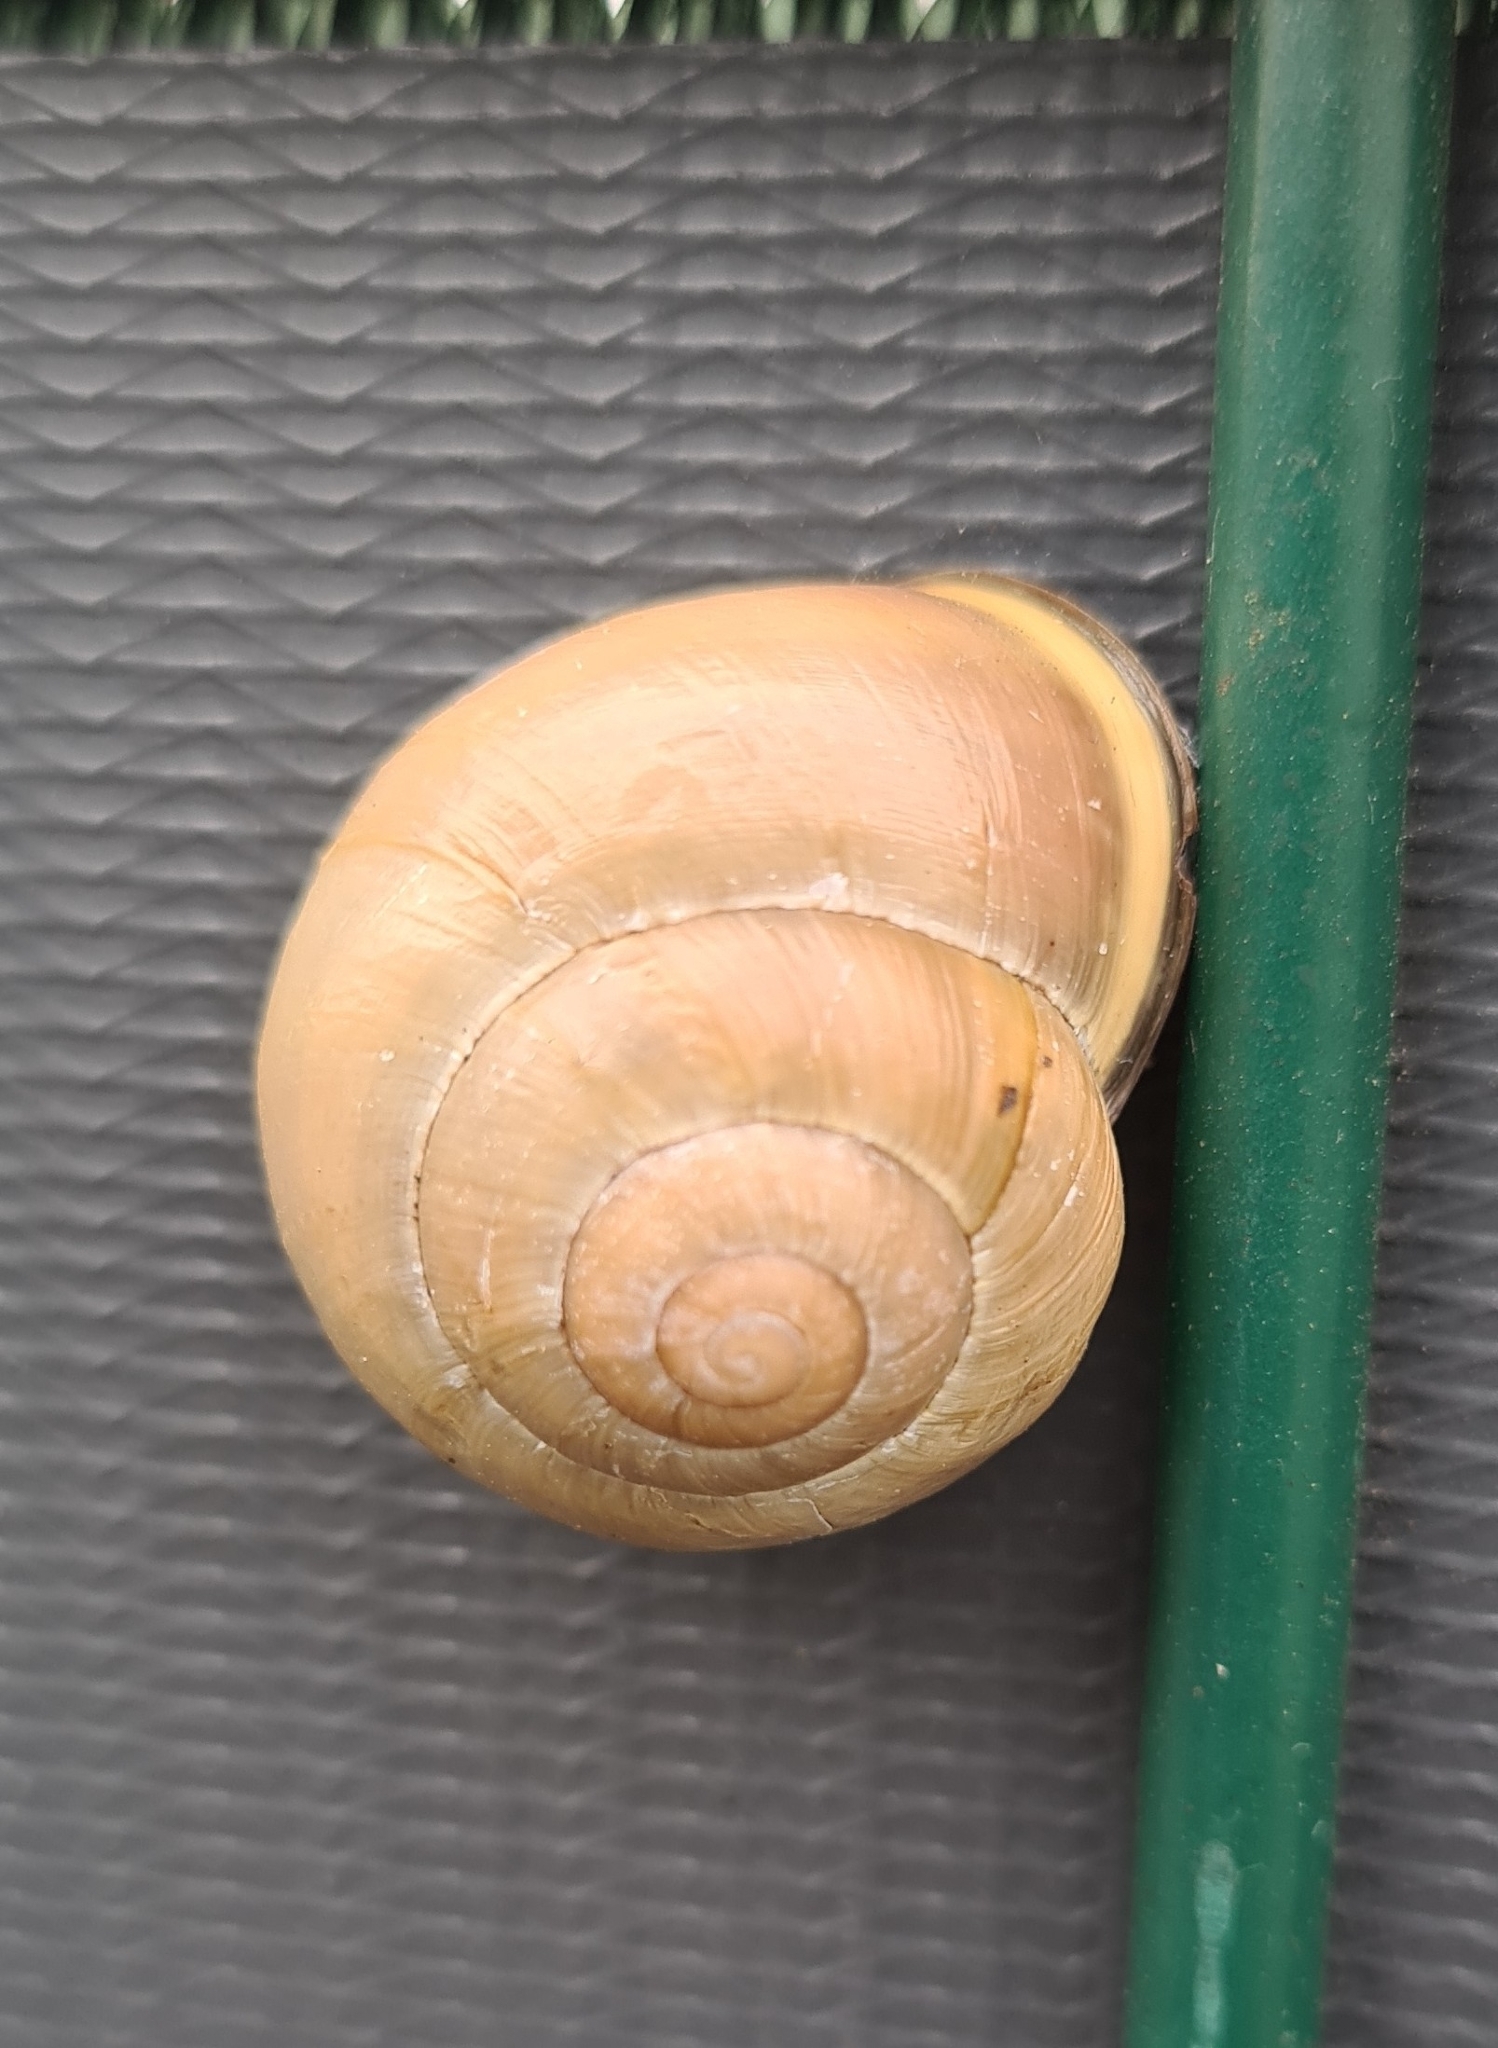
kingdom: Animalia
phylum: Mollusca
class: Gastropoda
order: Stylommatophora
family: Helicidae
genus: Cepaea
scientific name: Cepaea nemoralis
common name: Grovesnail
